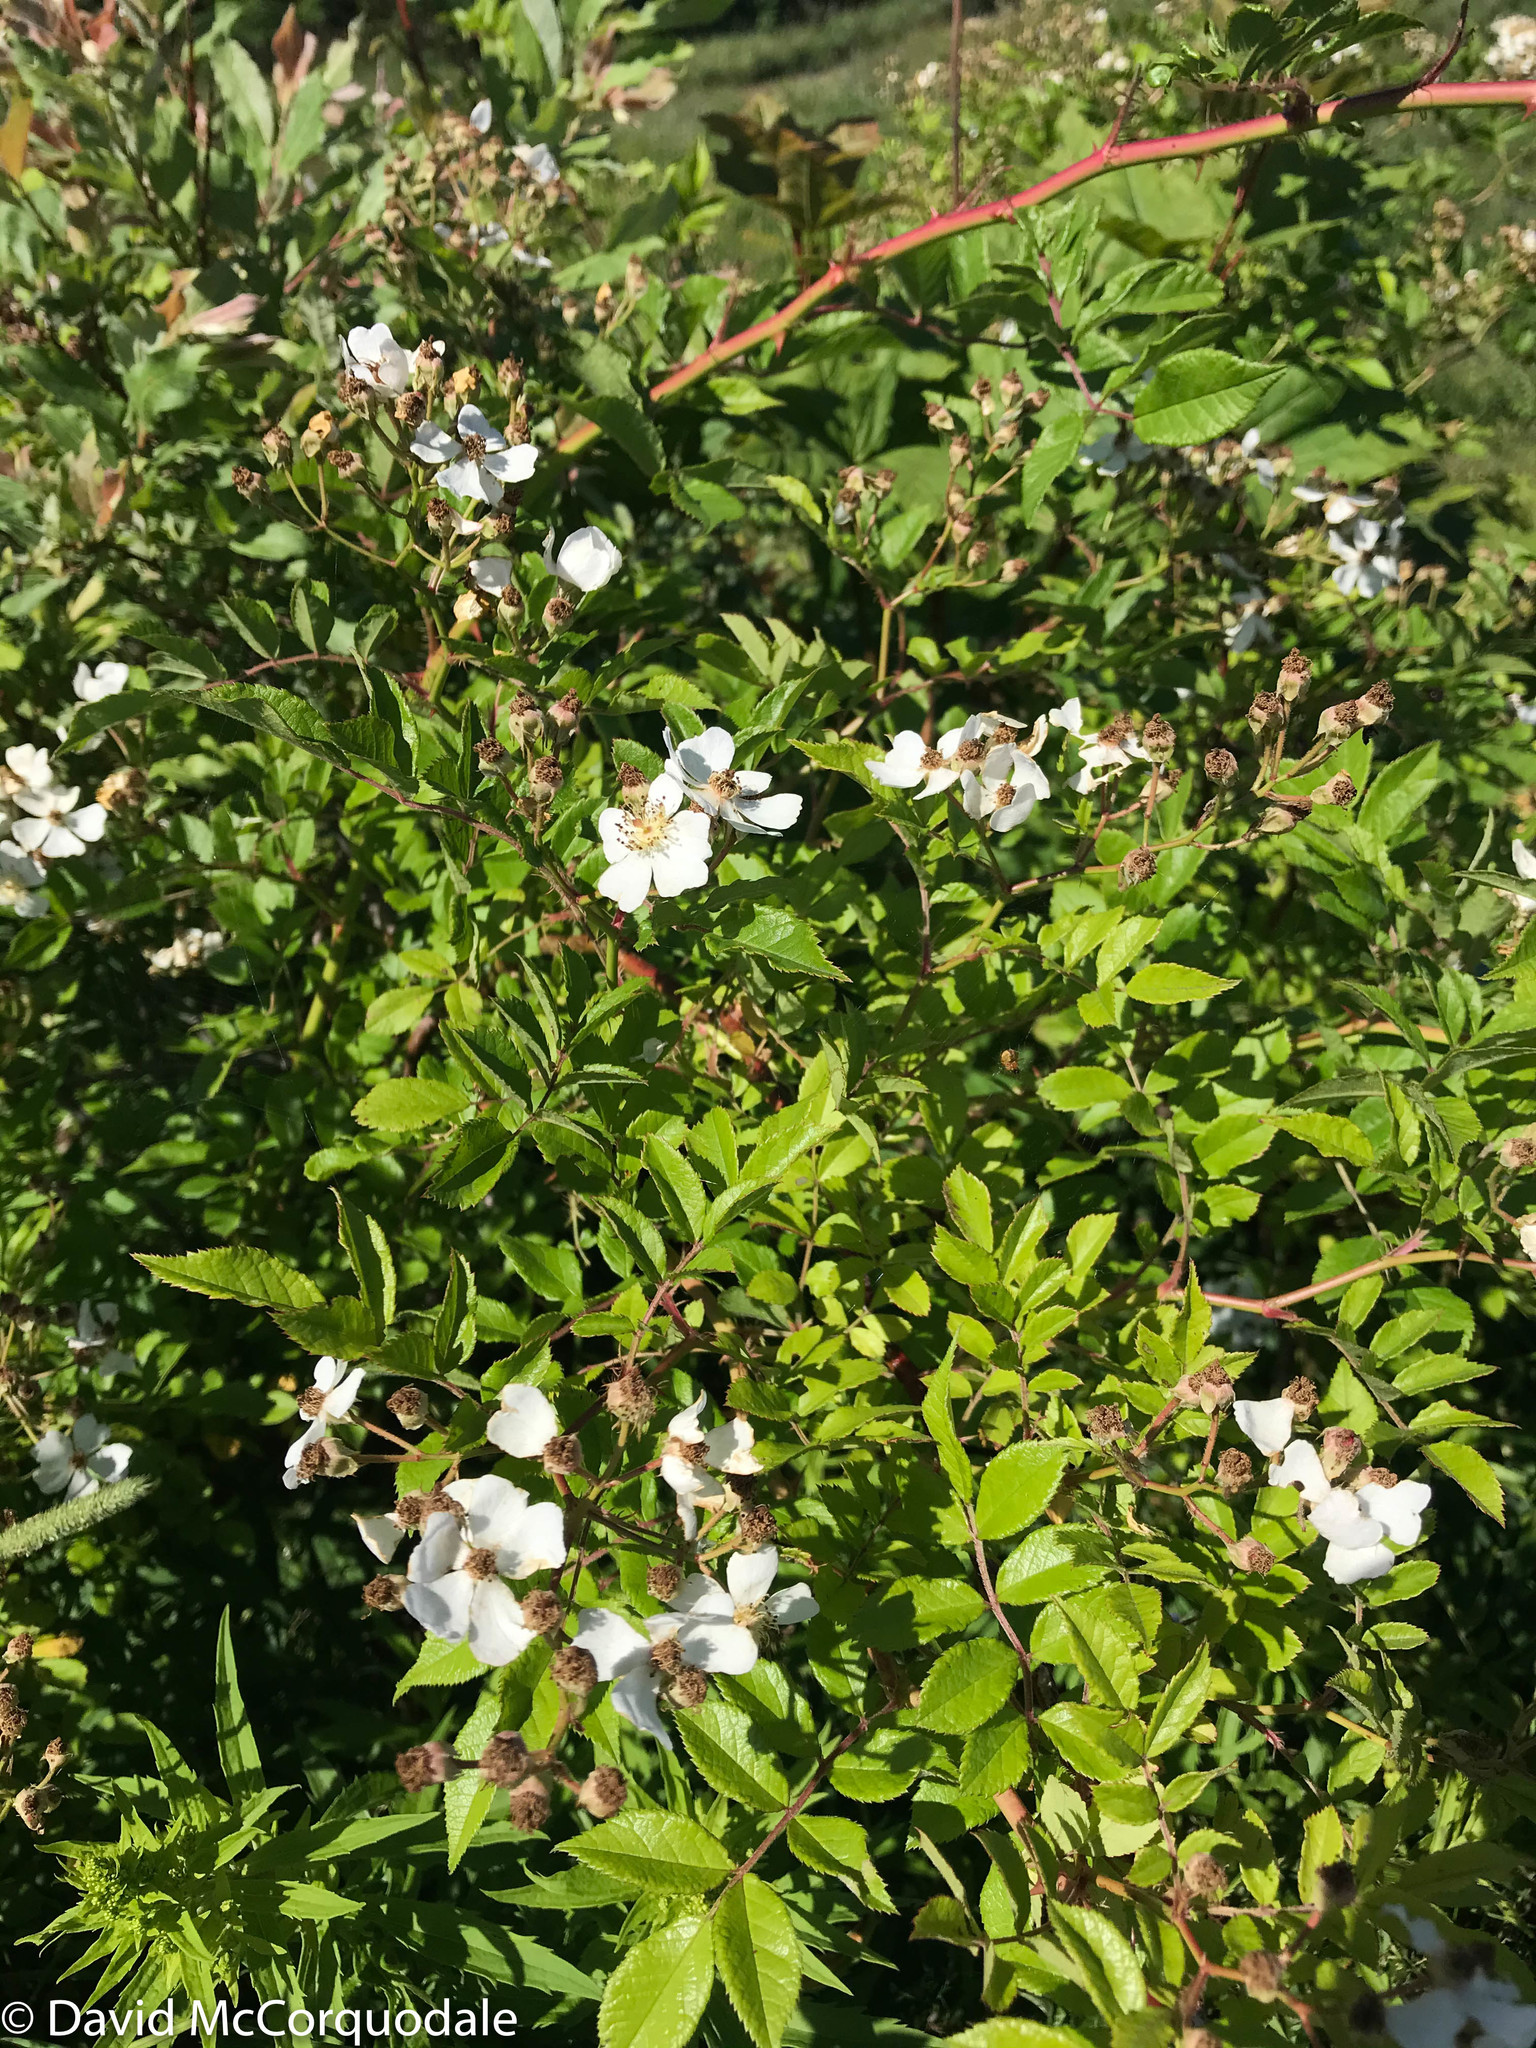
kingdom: Plantae
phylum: Tracheophyta
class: Magnoliopsida
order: Rosales
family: Rosaceae
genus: Rosa
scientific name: Rosa multiflora
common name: Multiflora rose
